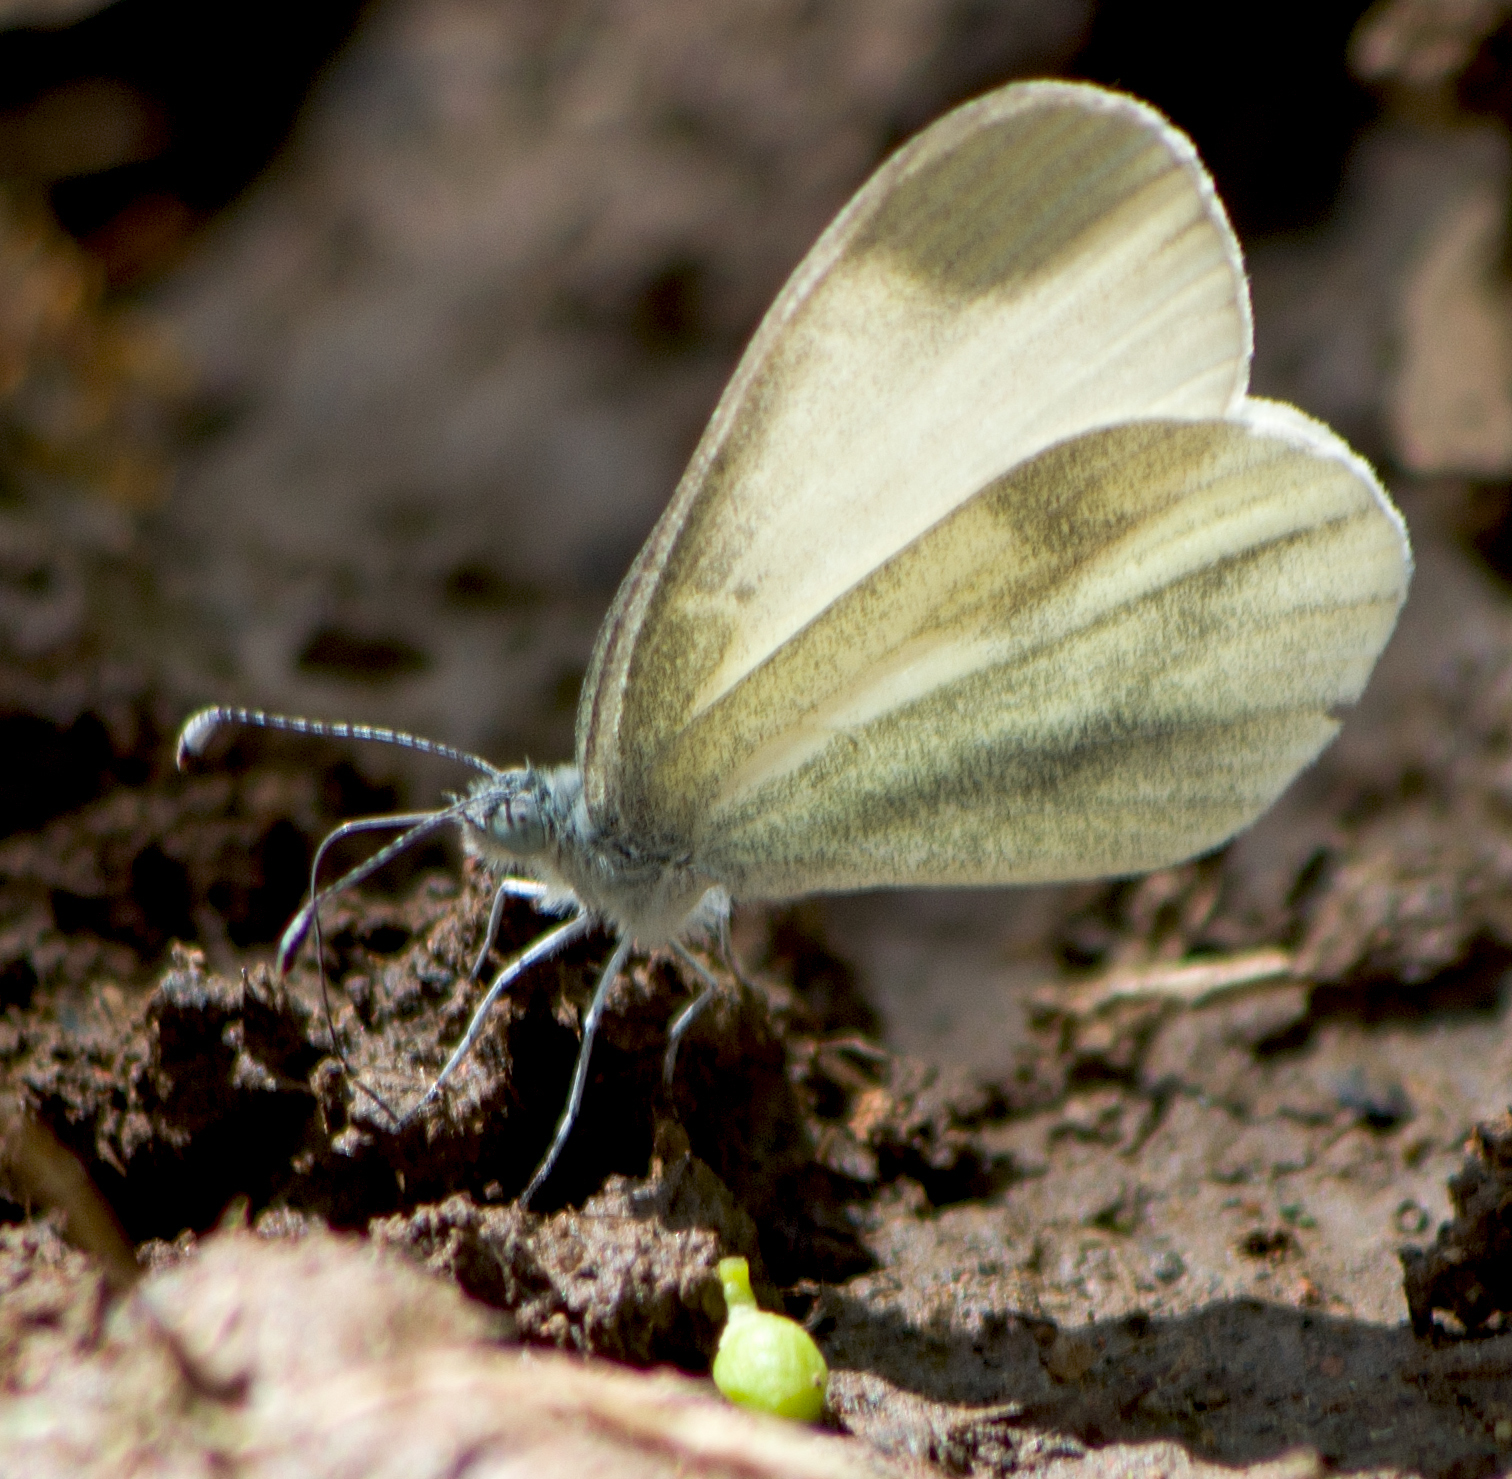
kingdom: Animalia
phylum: Arthropoda
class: Insecta
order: Lepidoptera
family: Pieridae
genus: Leptidea
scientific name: Leptidea
